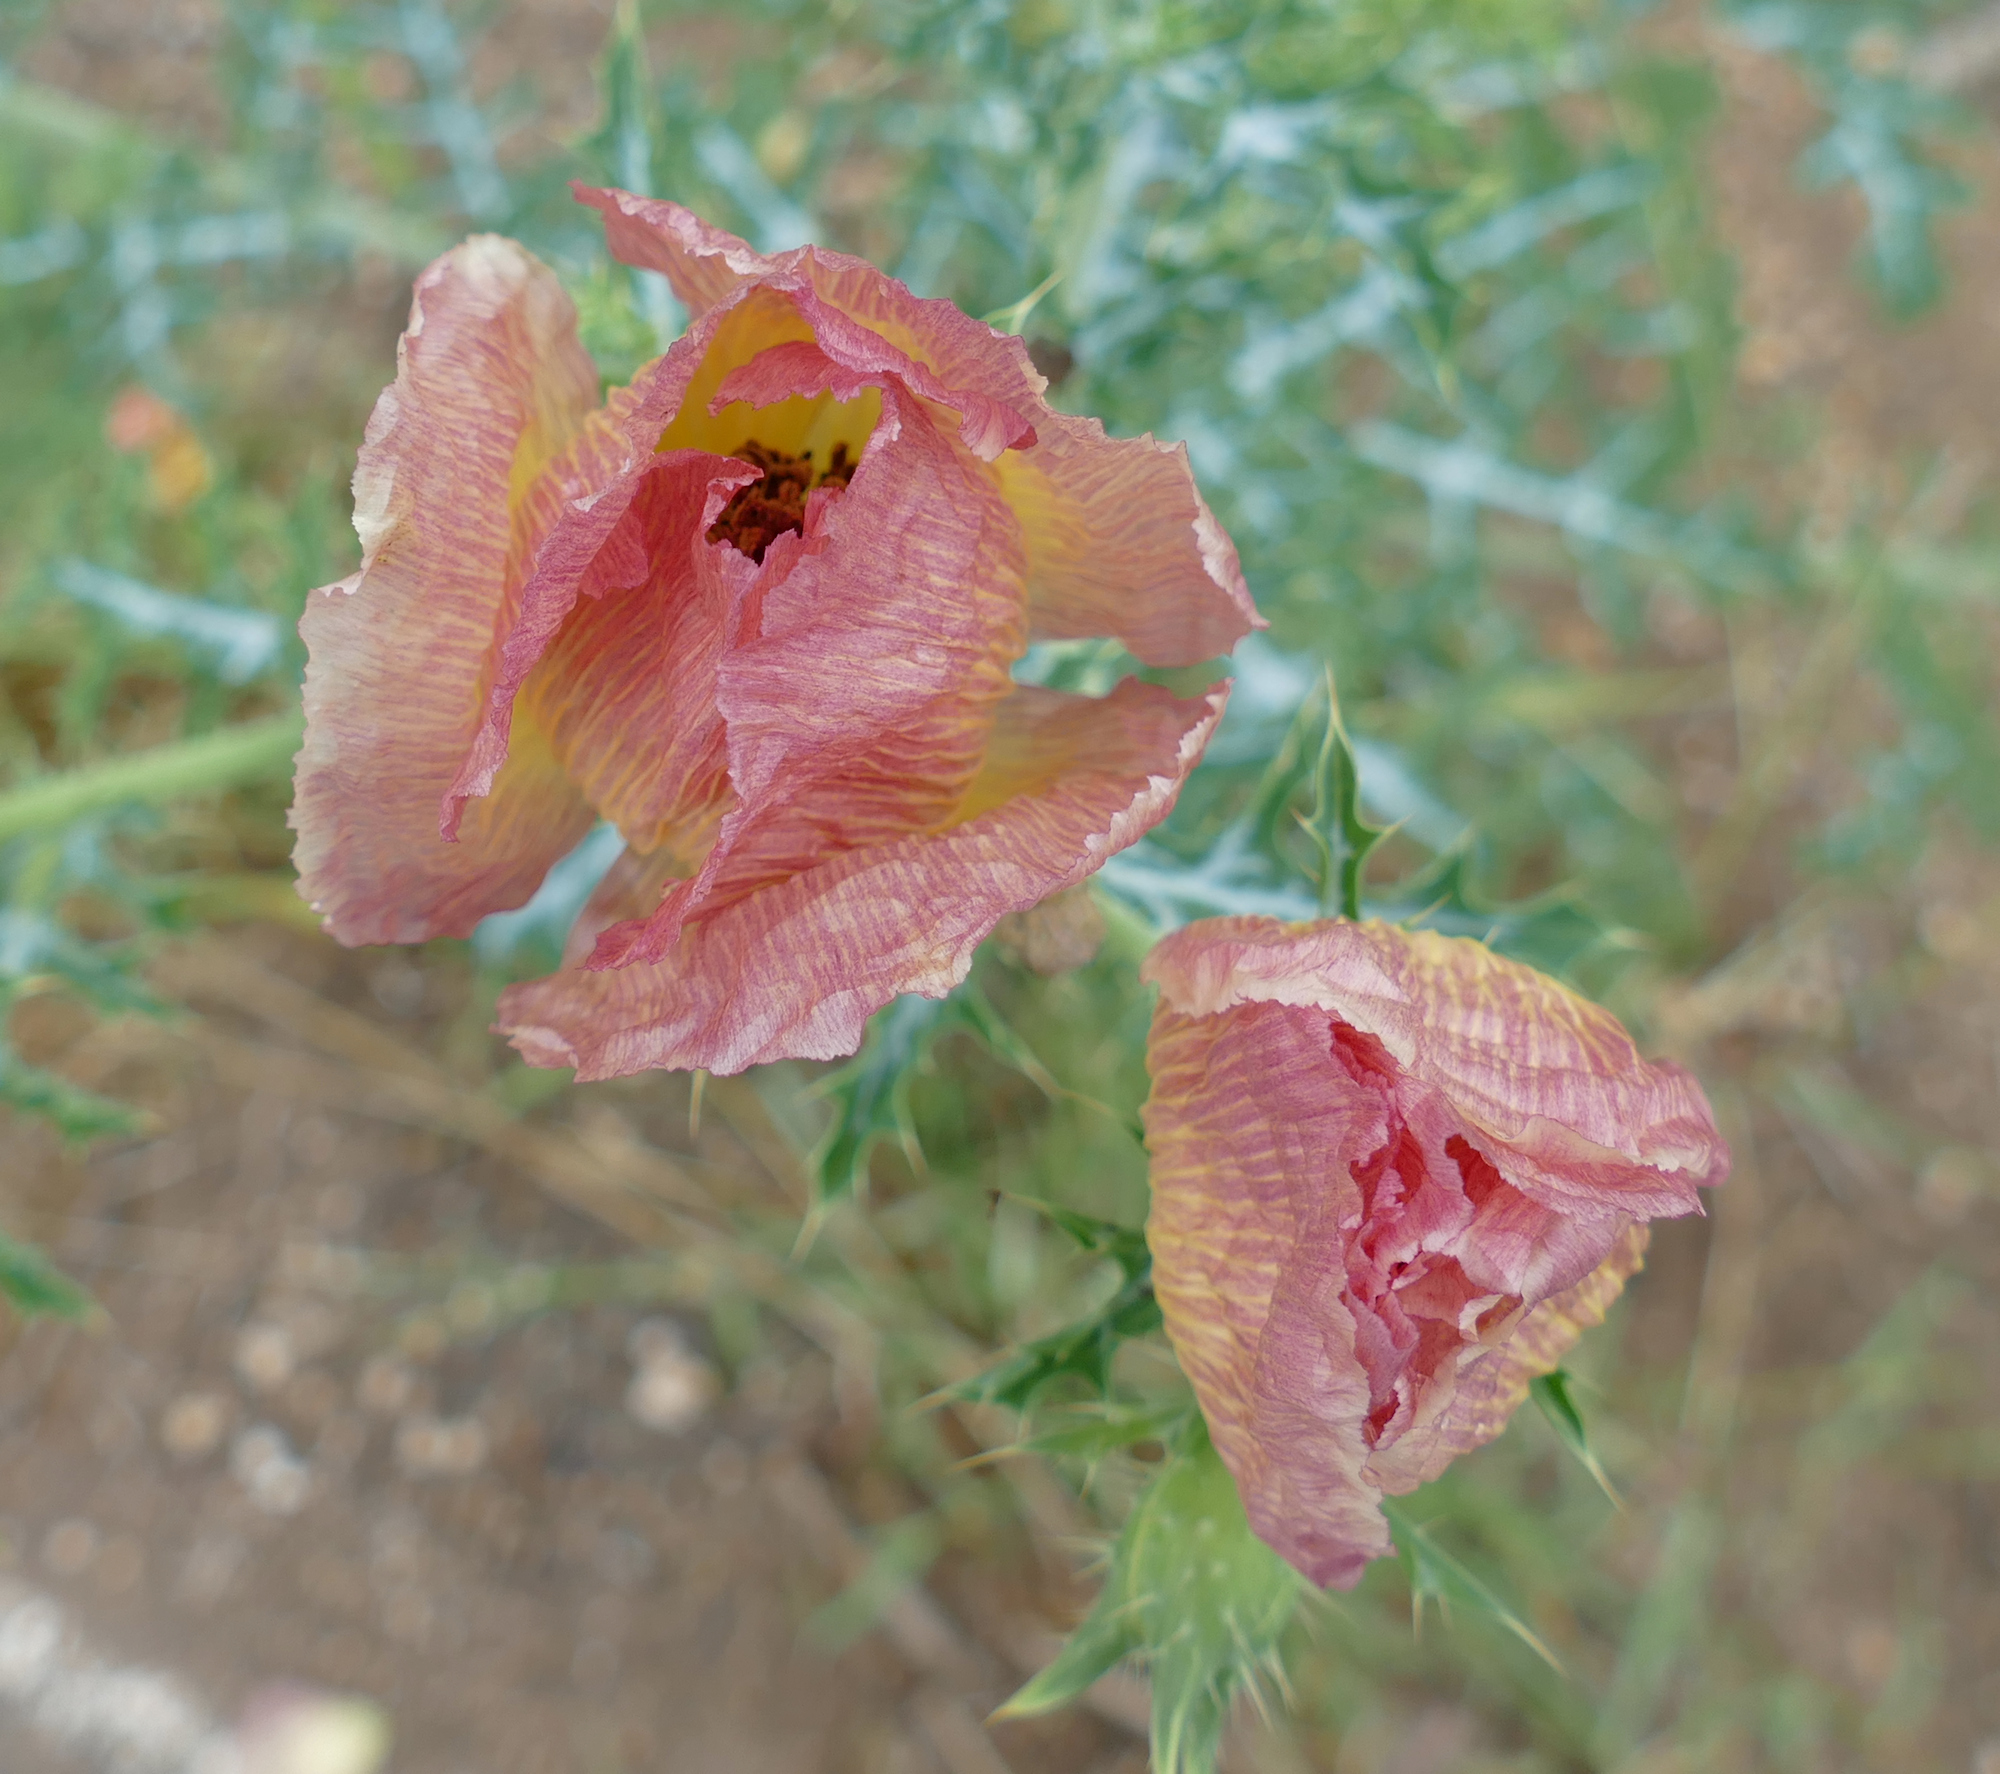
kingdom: Plantae
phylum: Tracheophyta
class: Magnoliopsida
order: Ranunculales
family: Papaveraceae
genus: Argemone
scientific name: Argemone sanguinea
